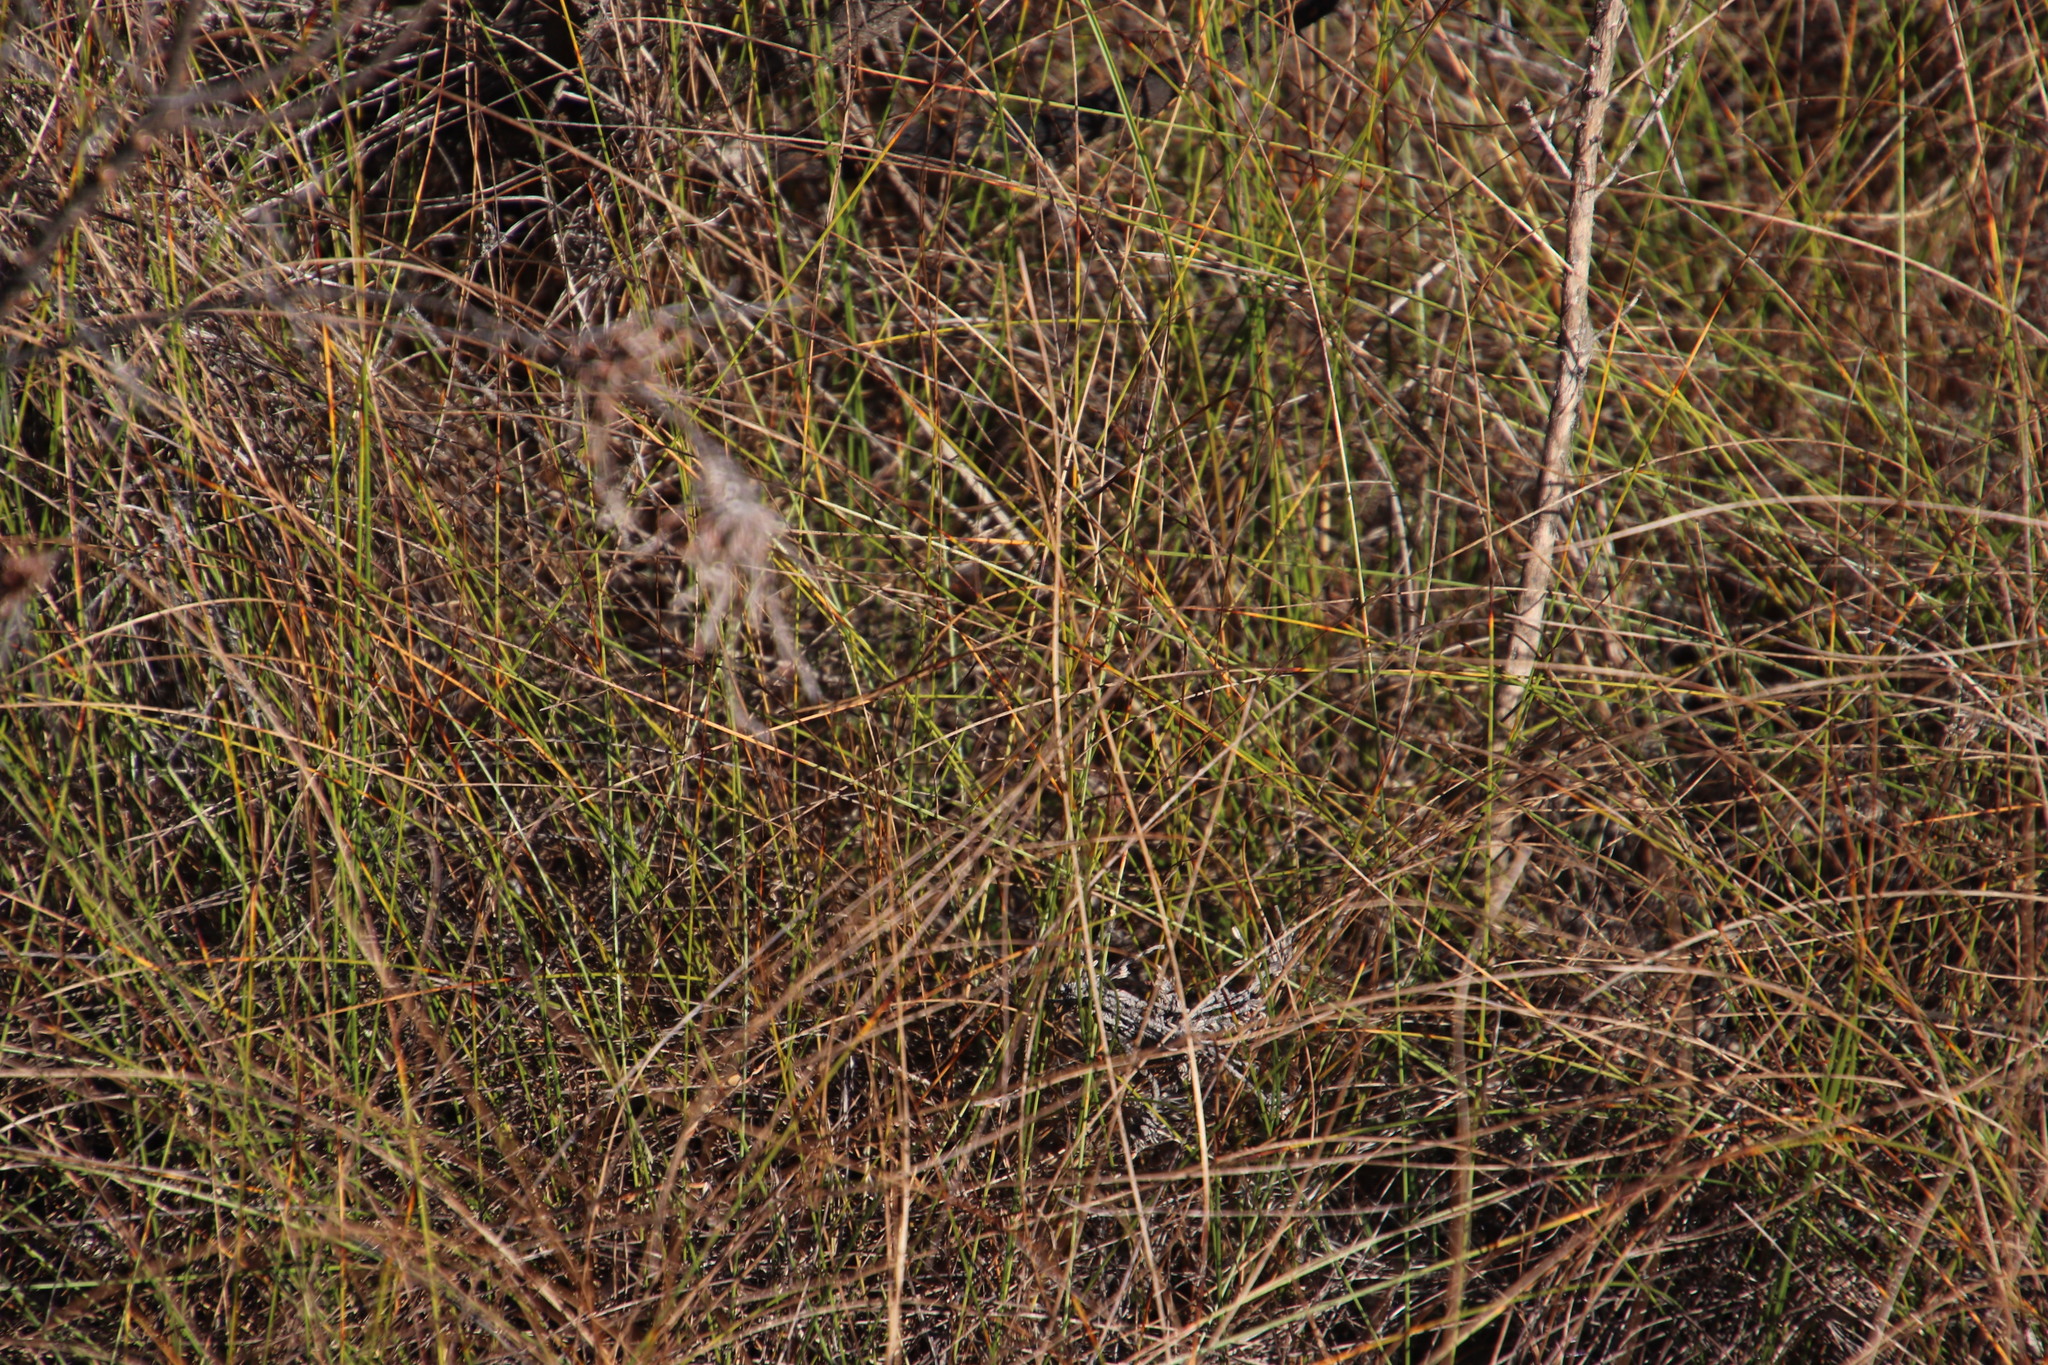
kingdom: Plantae
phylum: Tracheophyta
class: Liliopsida
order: Poales
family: Cyperaceae
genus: Ficinia
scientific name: Ficinia indica
